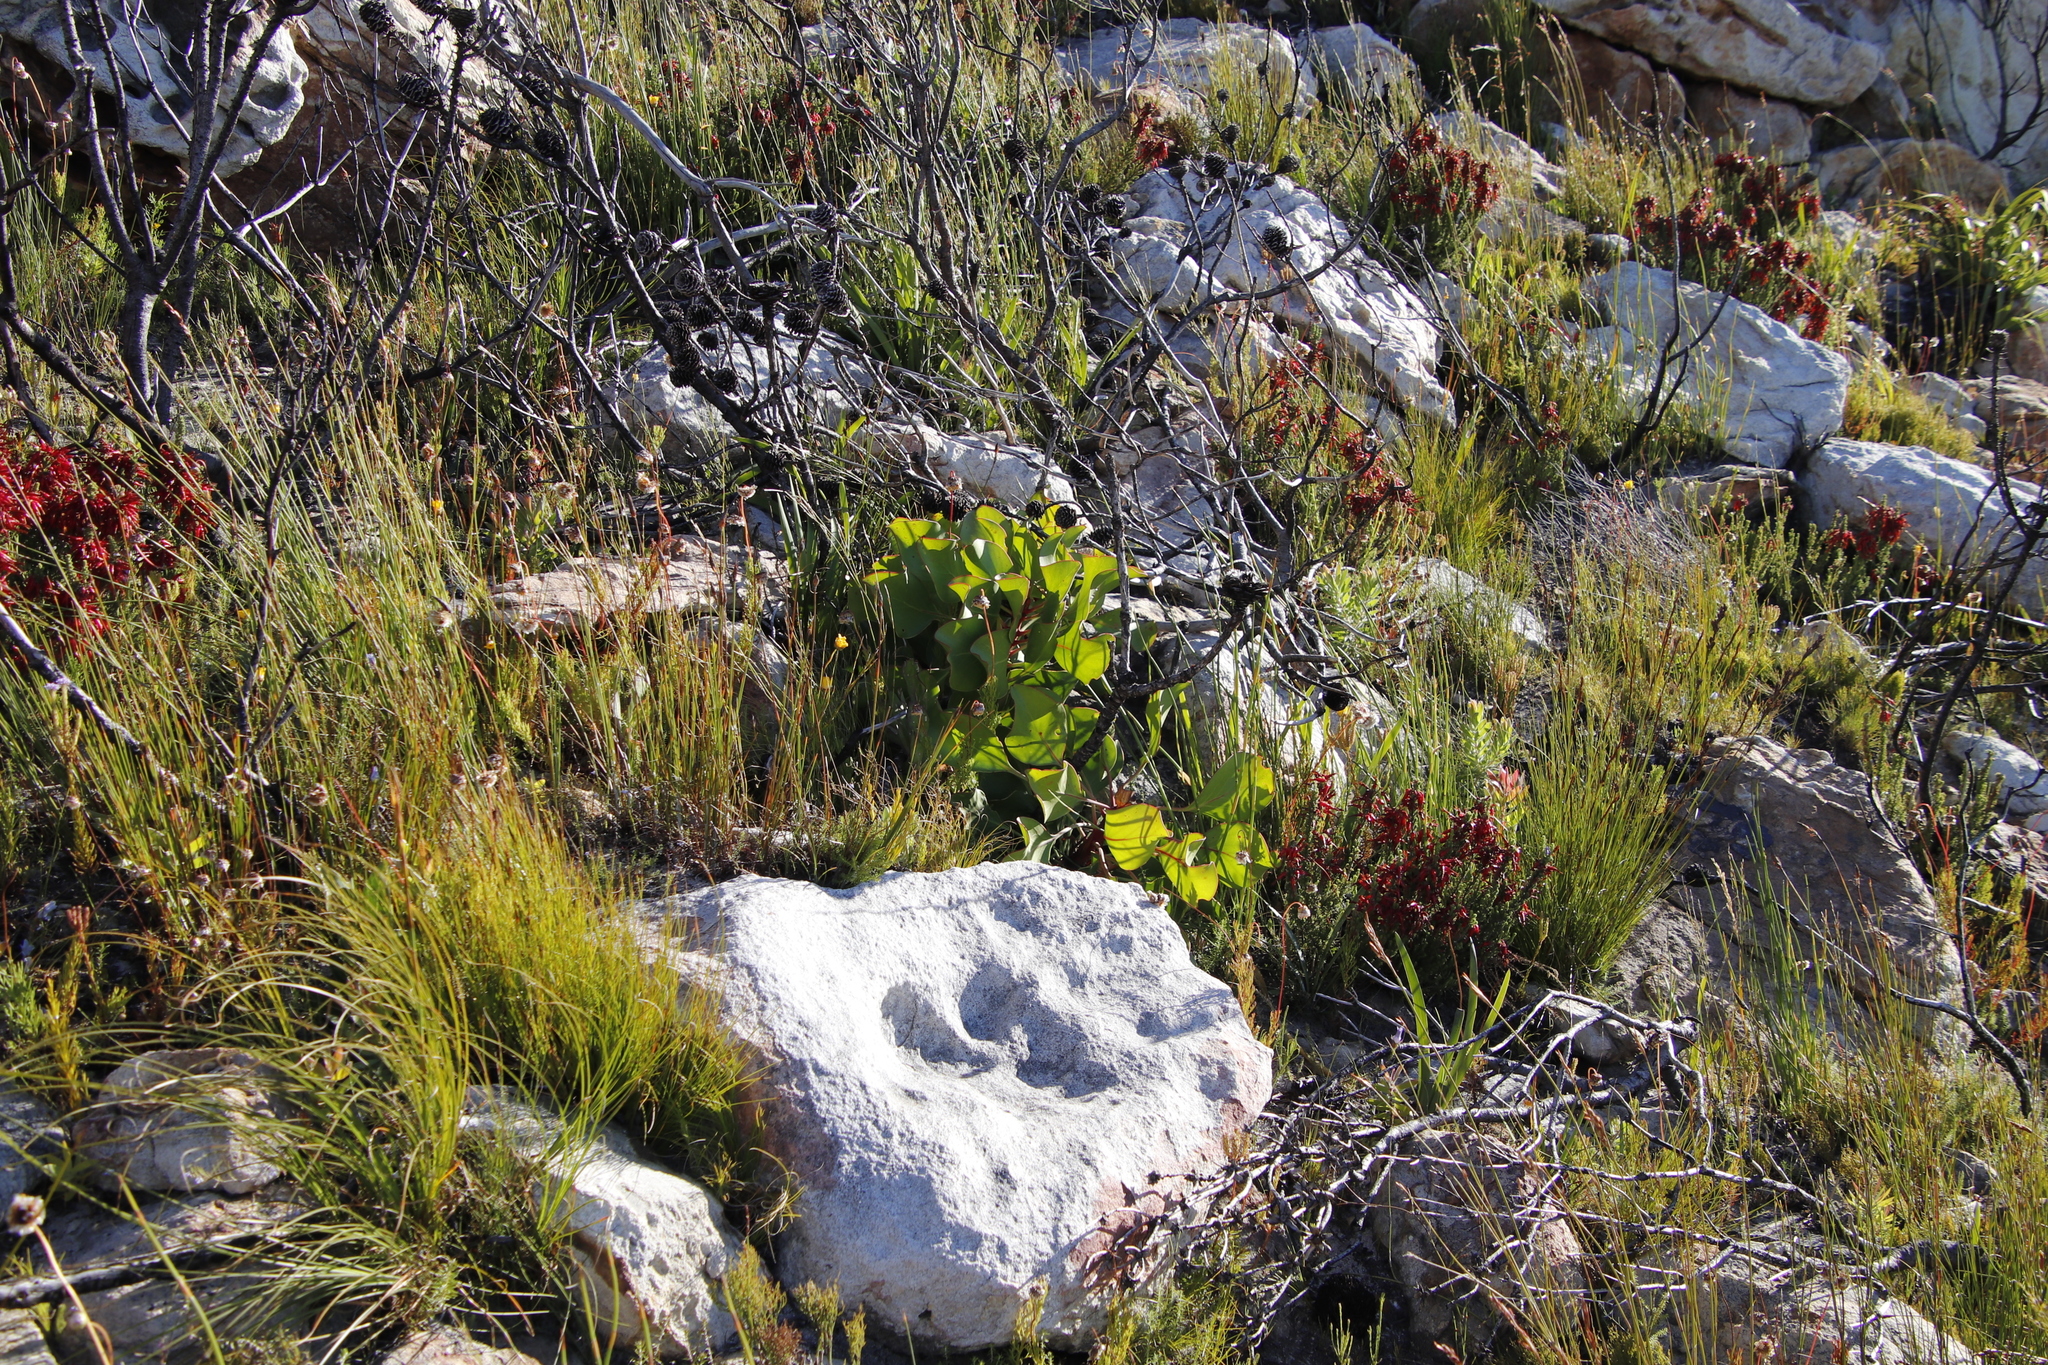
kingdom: Plantae
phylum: Tracheophyta
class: Magnoliopsida
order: Proteales
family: Proteaceae
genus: Protea
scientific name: Protea cynaroides
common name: King protea
